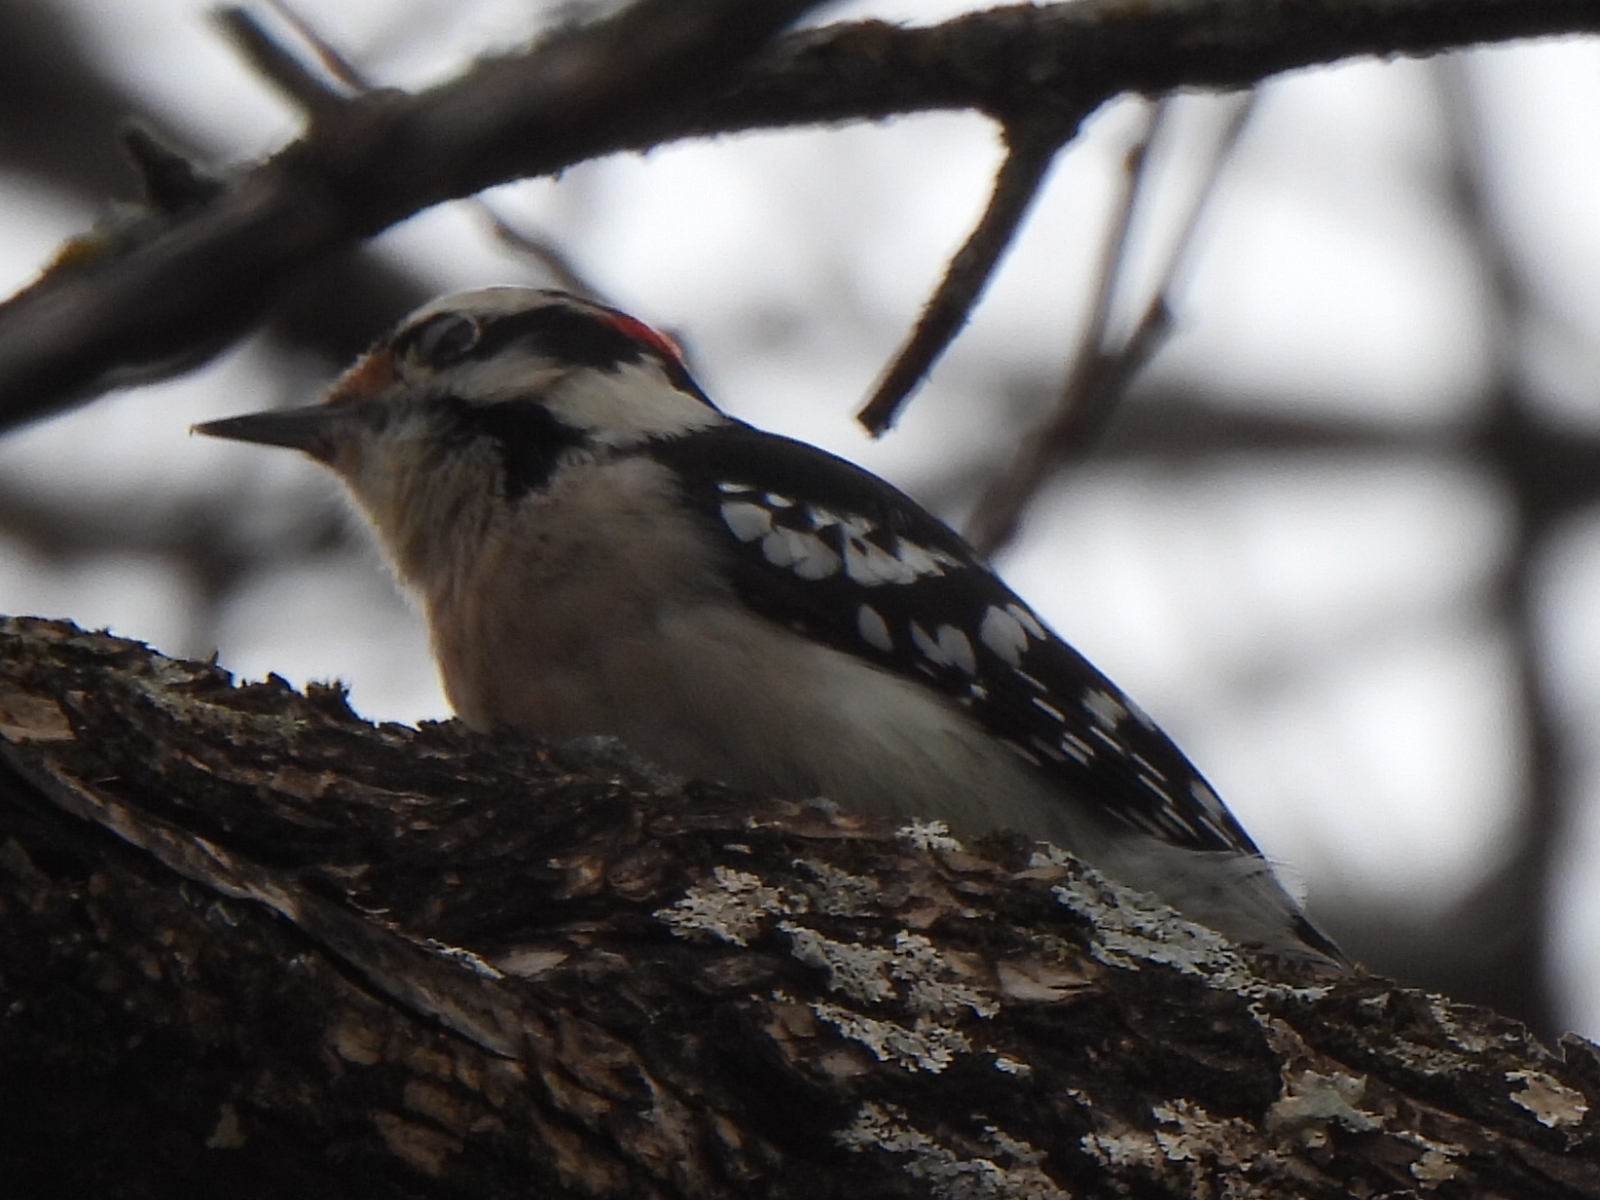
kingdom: Animalia
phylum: Chordata
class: Aves
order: Piciformes
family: Picidae
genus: Dryobates
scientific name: Dryobates pubescens
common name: Downy woodpecker
